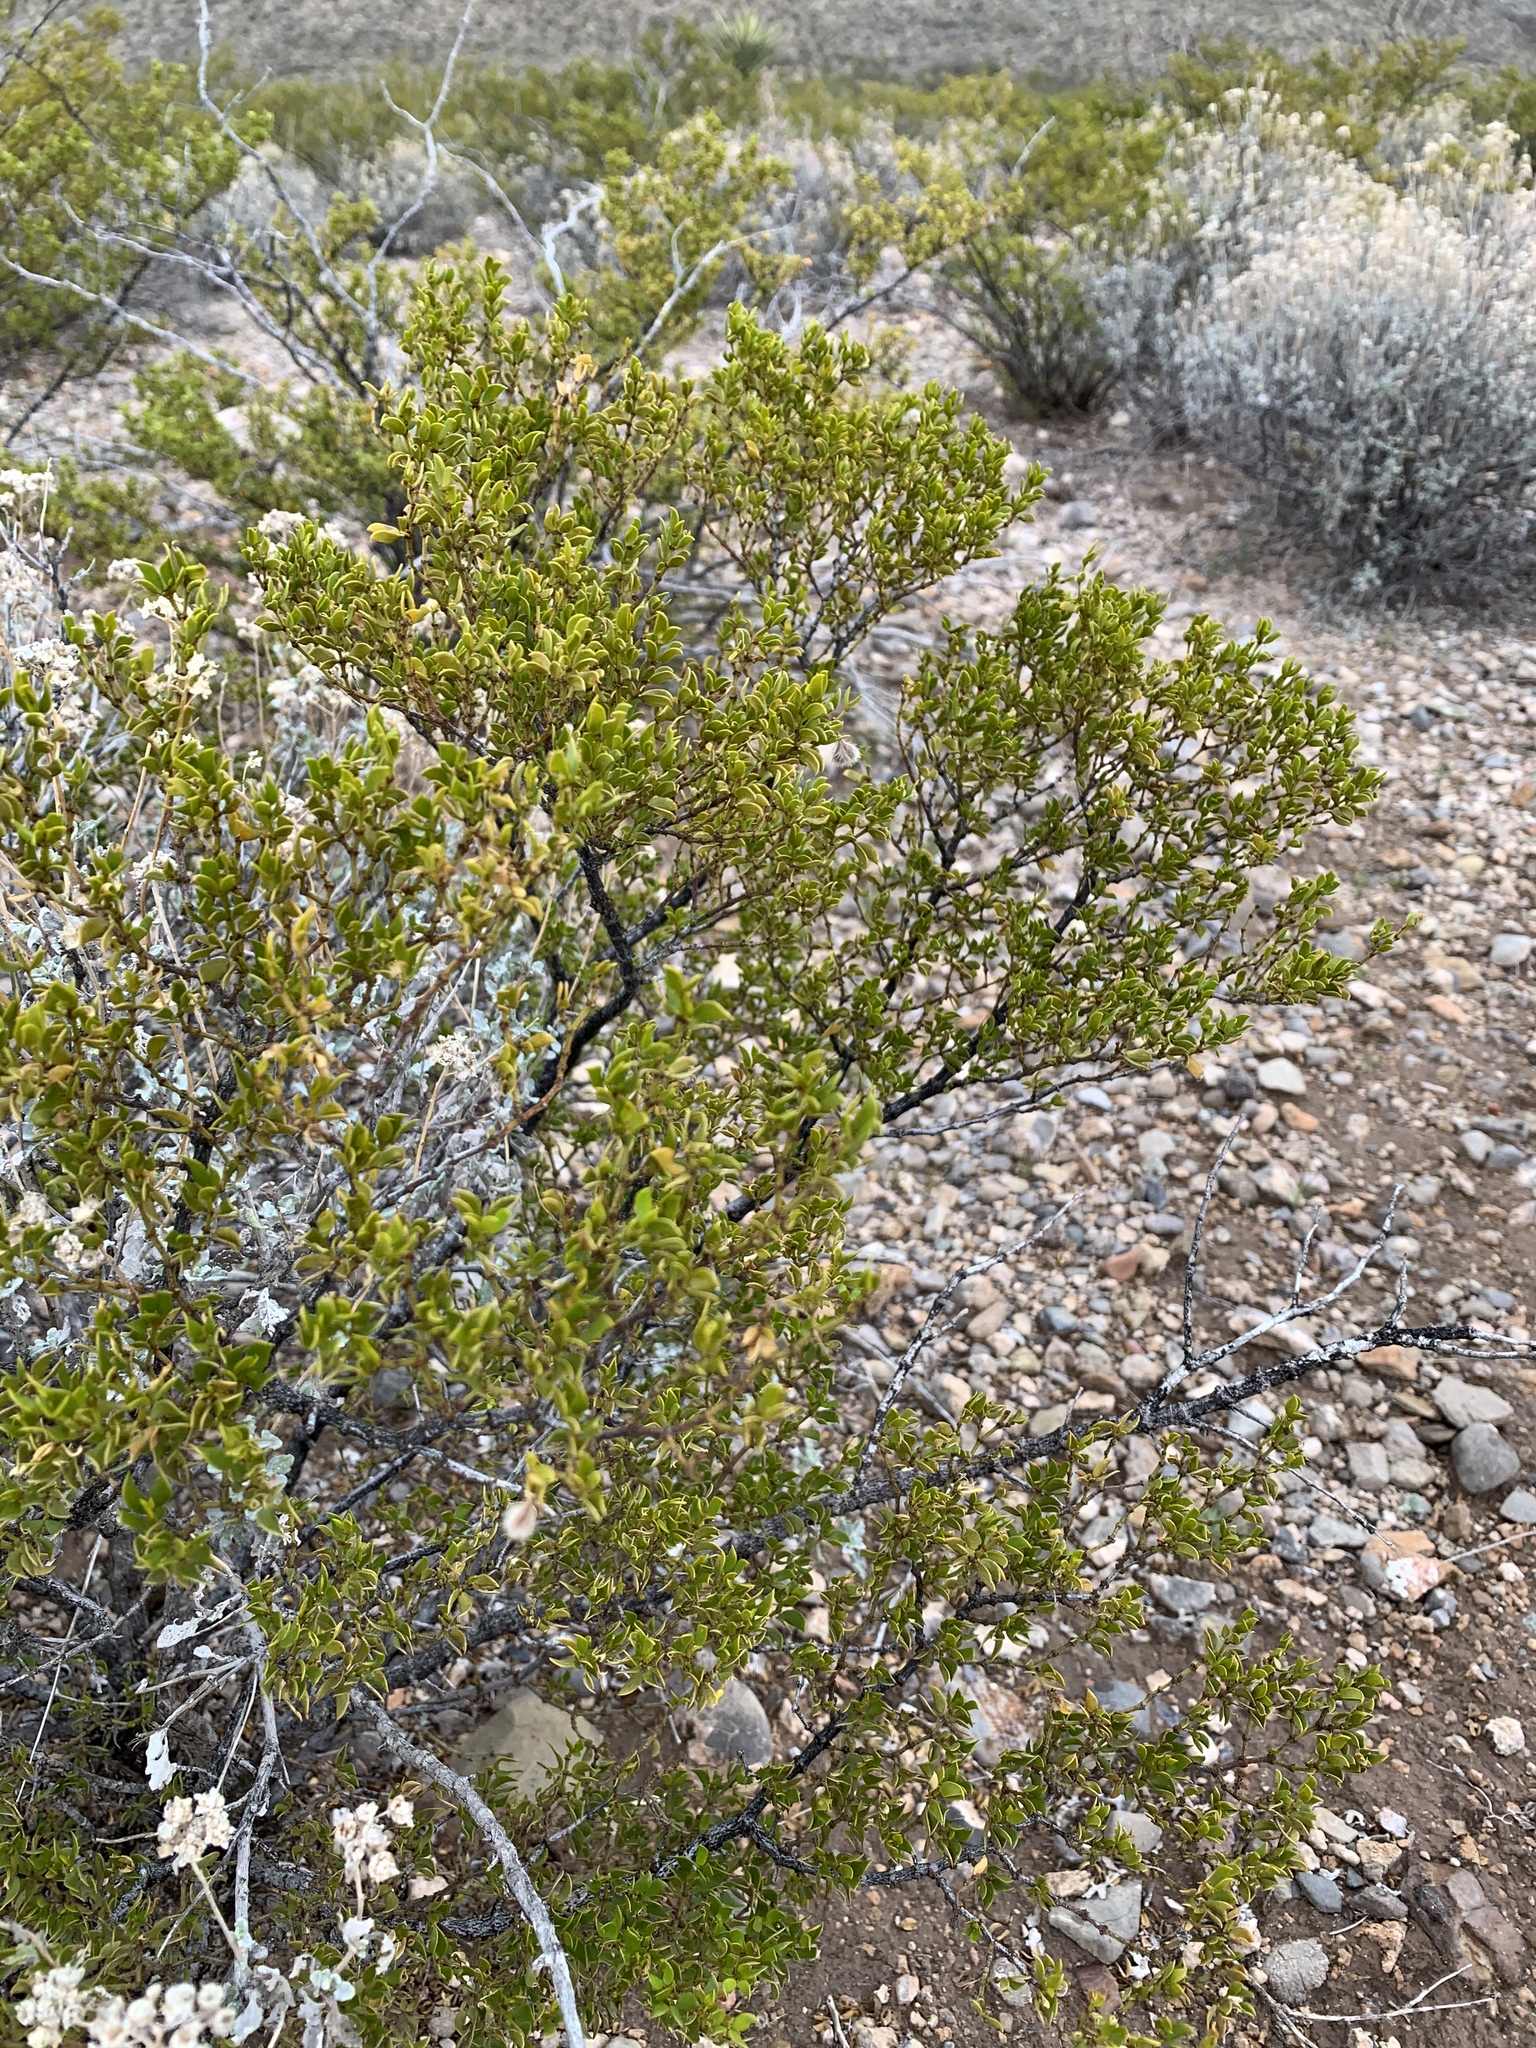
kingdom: Plantae
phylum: Tracheophyta
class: Magnoliopsida
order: Zygophyllales
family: Zygophyllaceae
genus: Larrea
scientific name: Larrea tridentata
